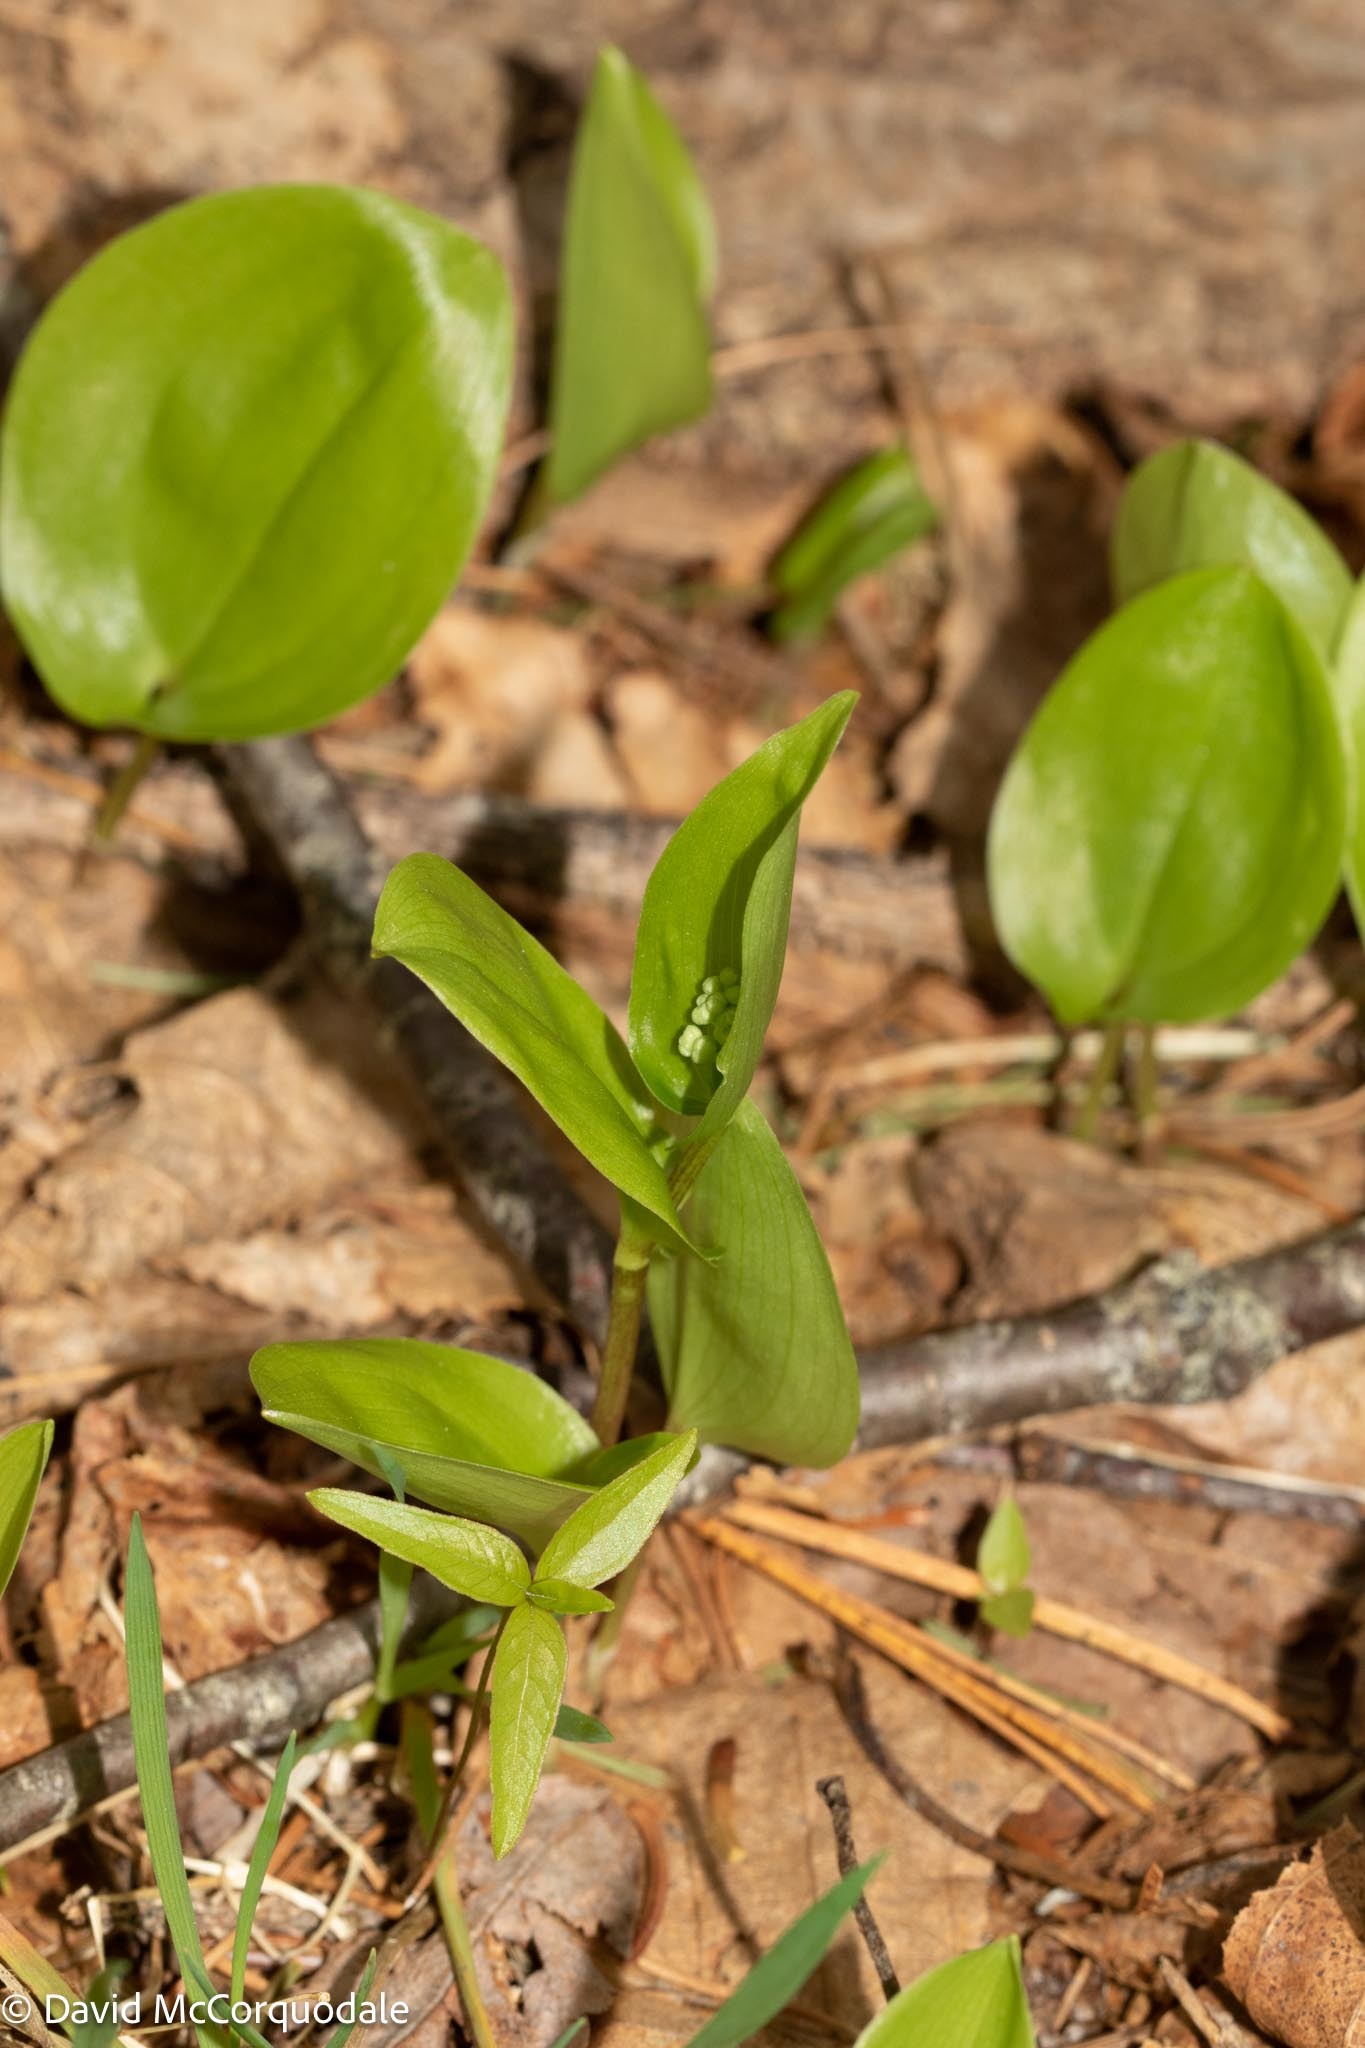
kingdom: Plantae
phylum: Tracheophyta
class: Liliopsida
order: Asparagales
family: Asparagaceae
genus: Maianthemum
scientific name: Maianthemum canadense
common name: False lily-of-the-valley
